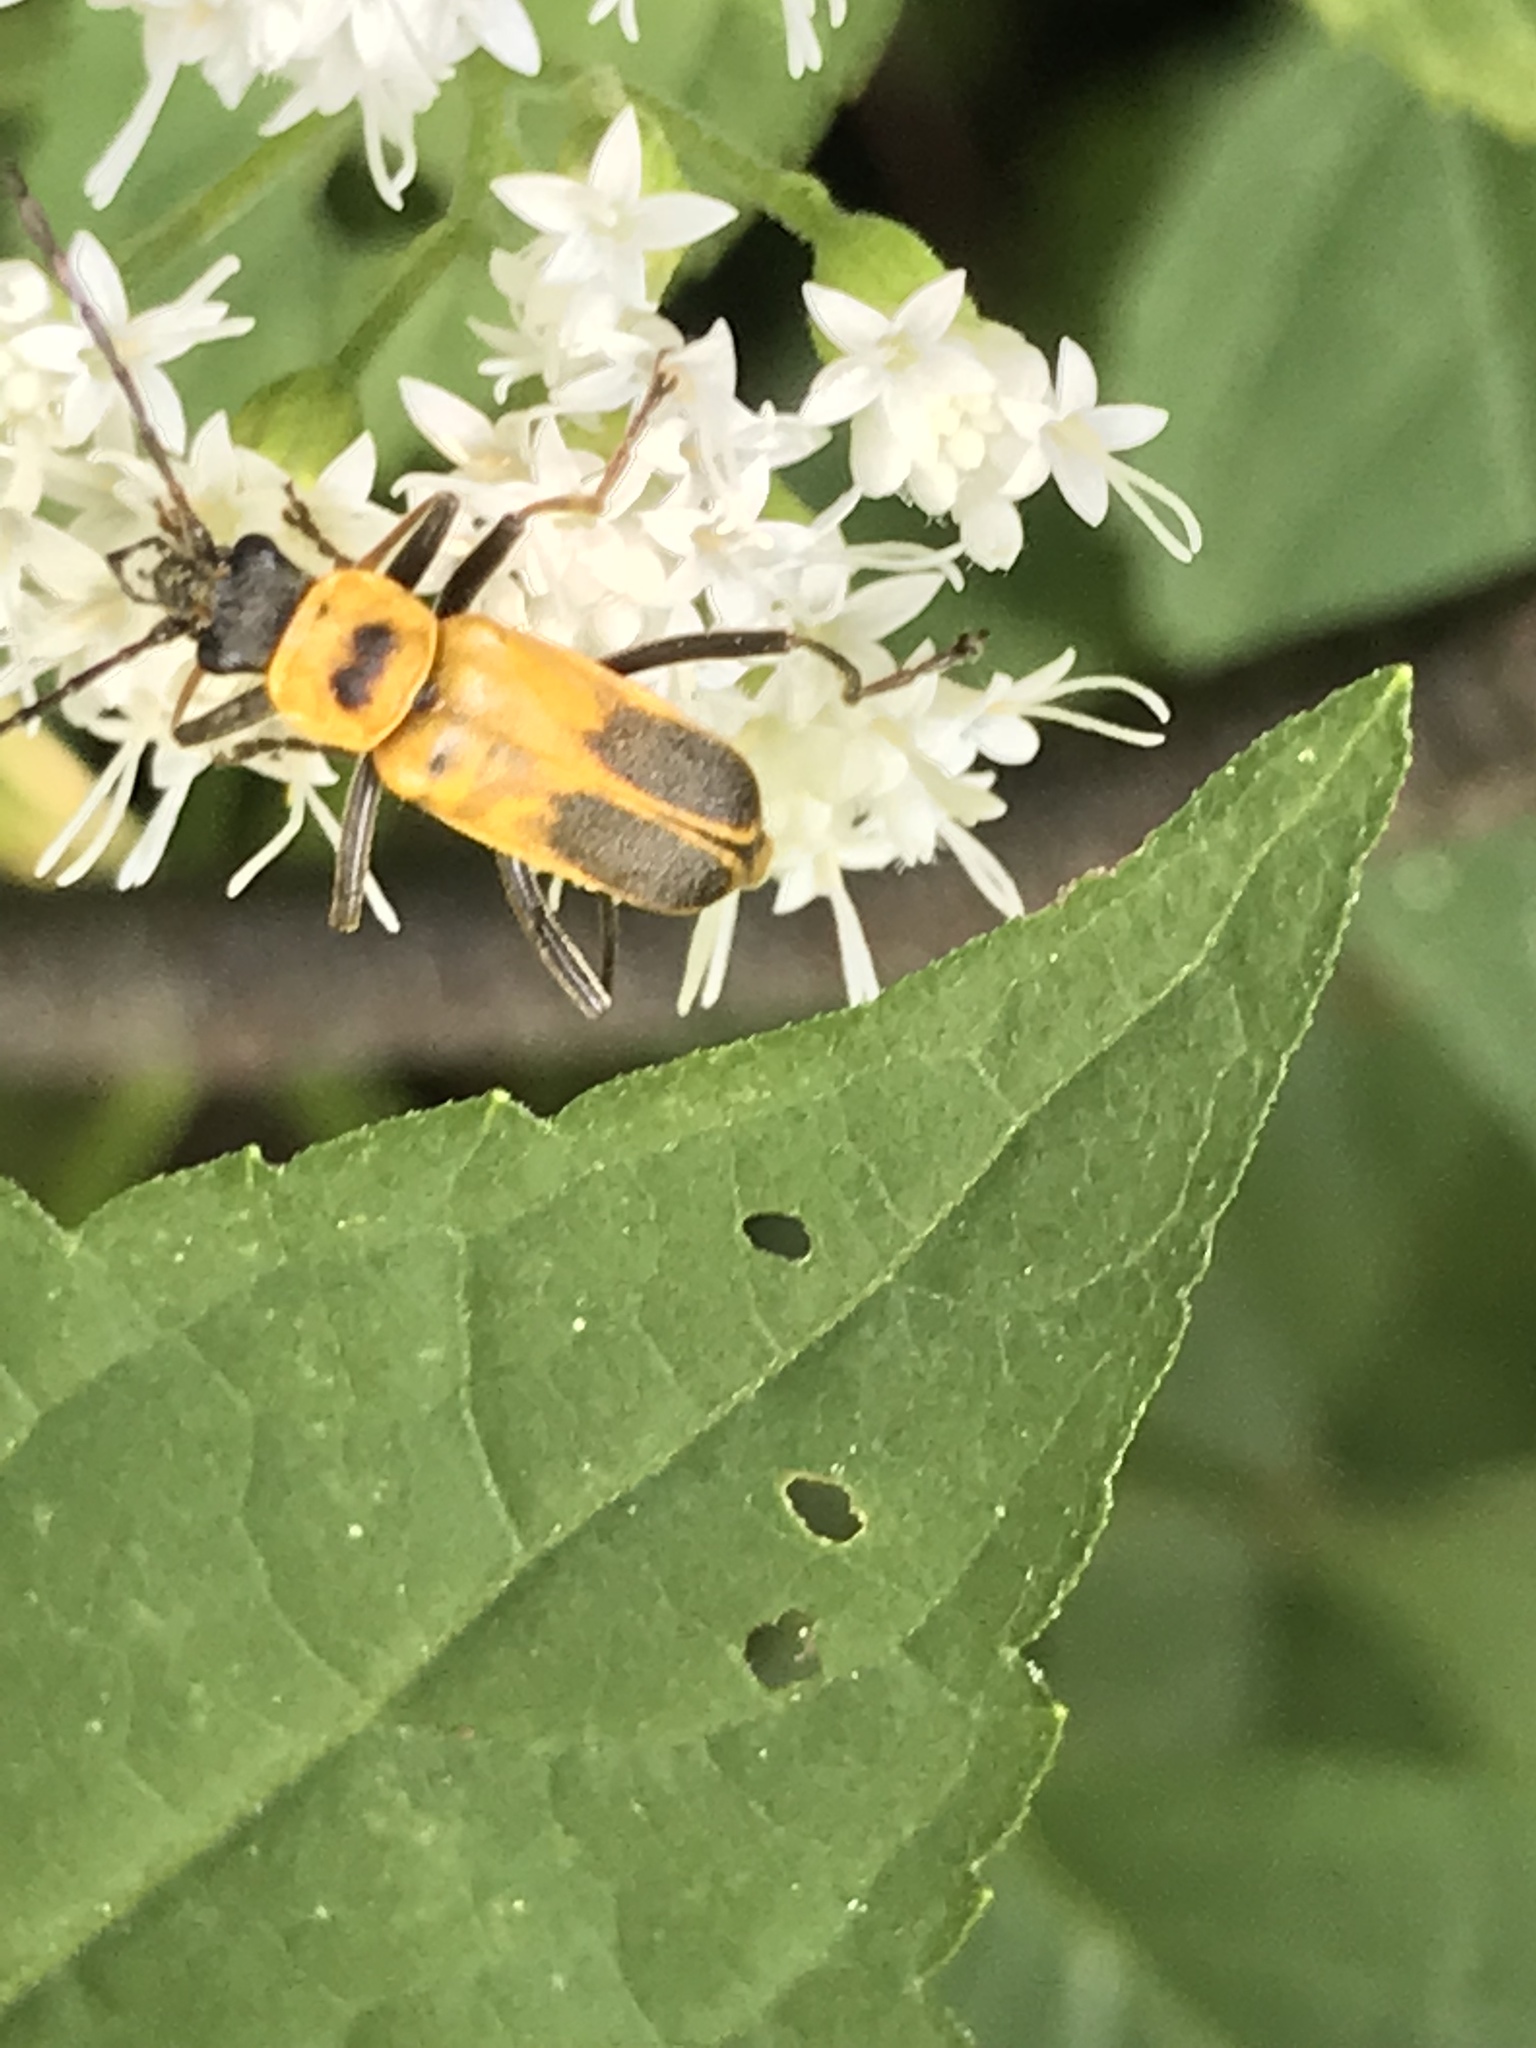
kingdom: Animalia
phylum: Arthropoda
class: Insecta
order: Coleoptera
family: Cantharidae
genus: Chauliognathus
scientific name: Chauliognathus pensylvanicus
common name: Goldenrod soldier beetle
